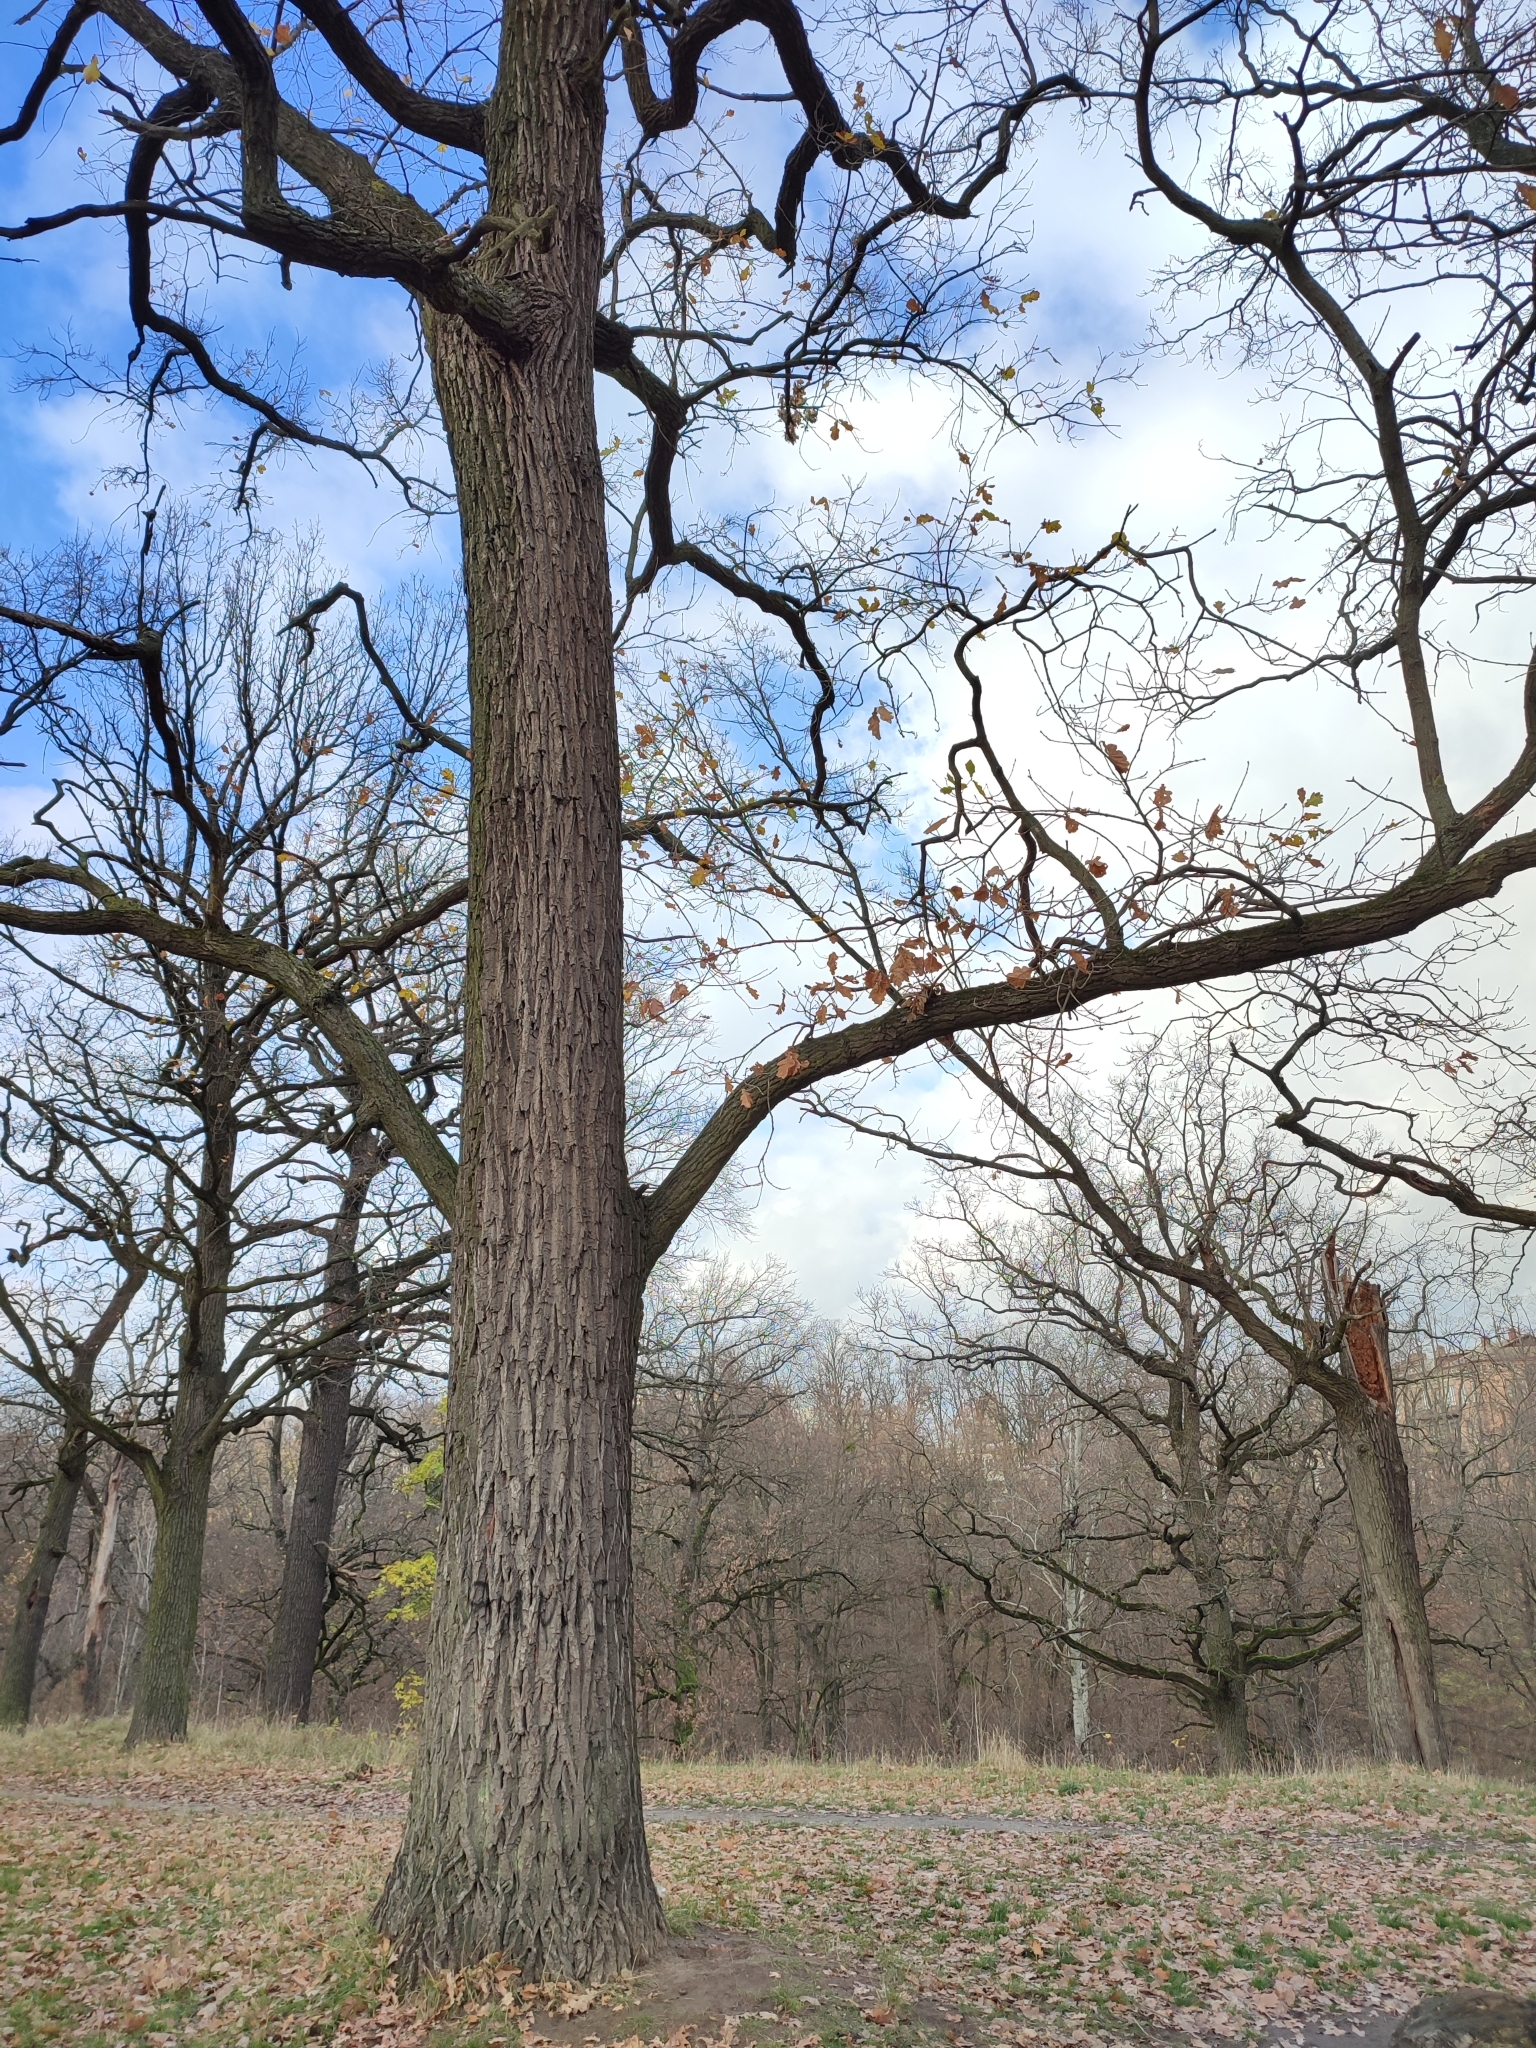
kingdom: Plantae
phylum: Tracheophyta
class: Magnoliopsida
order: Fagales
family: Fagaceae
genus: Quercus
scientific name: Quercus robur
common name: Pedunculate oak
